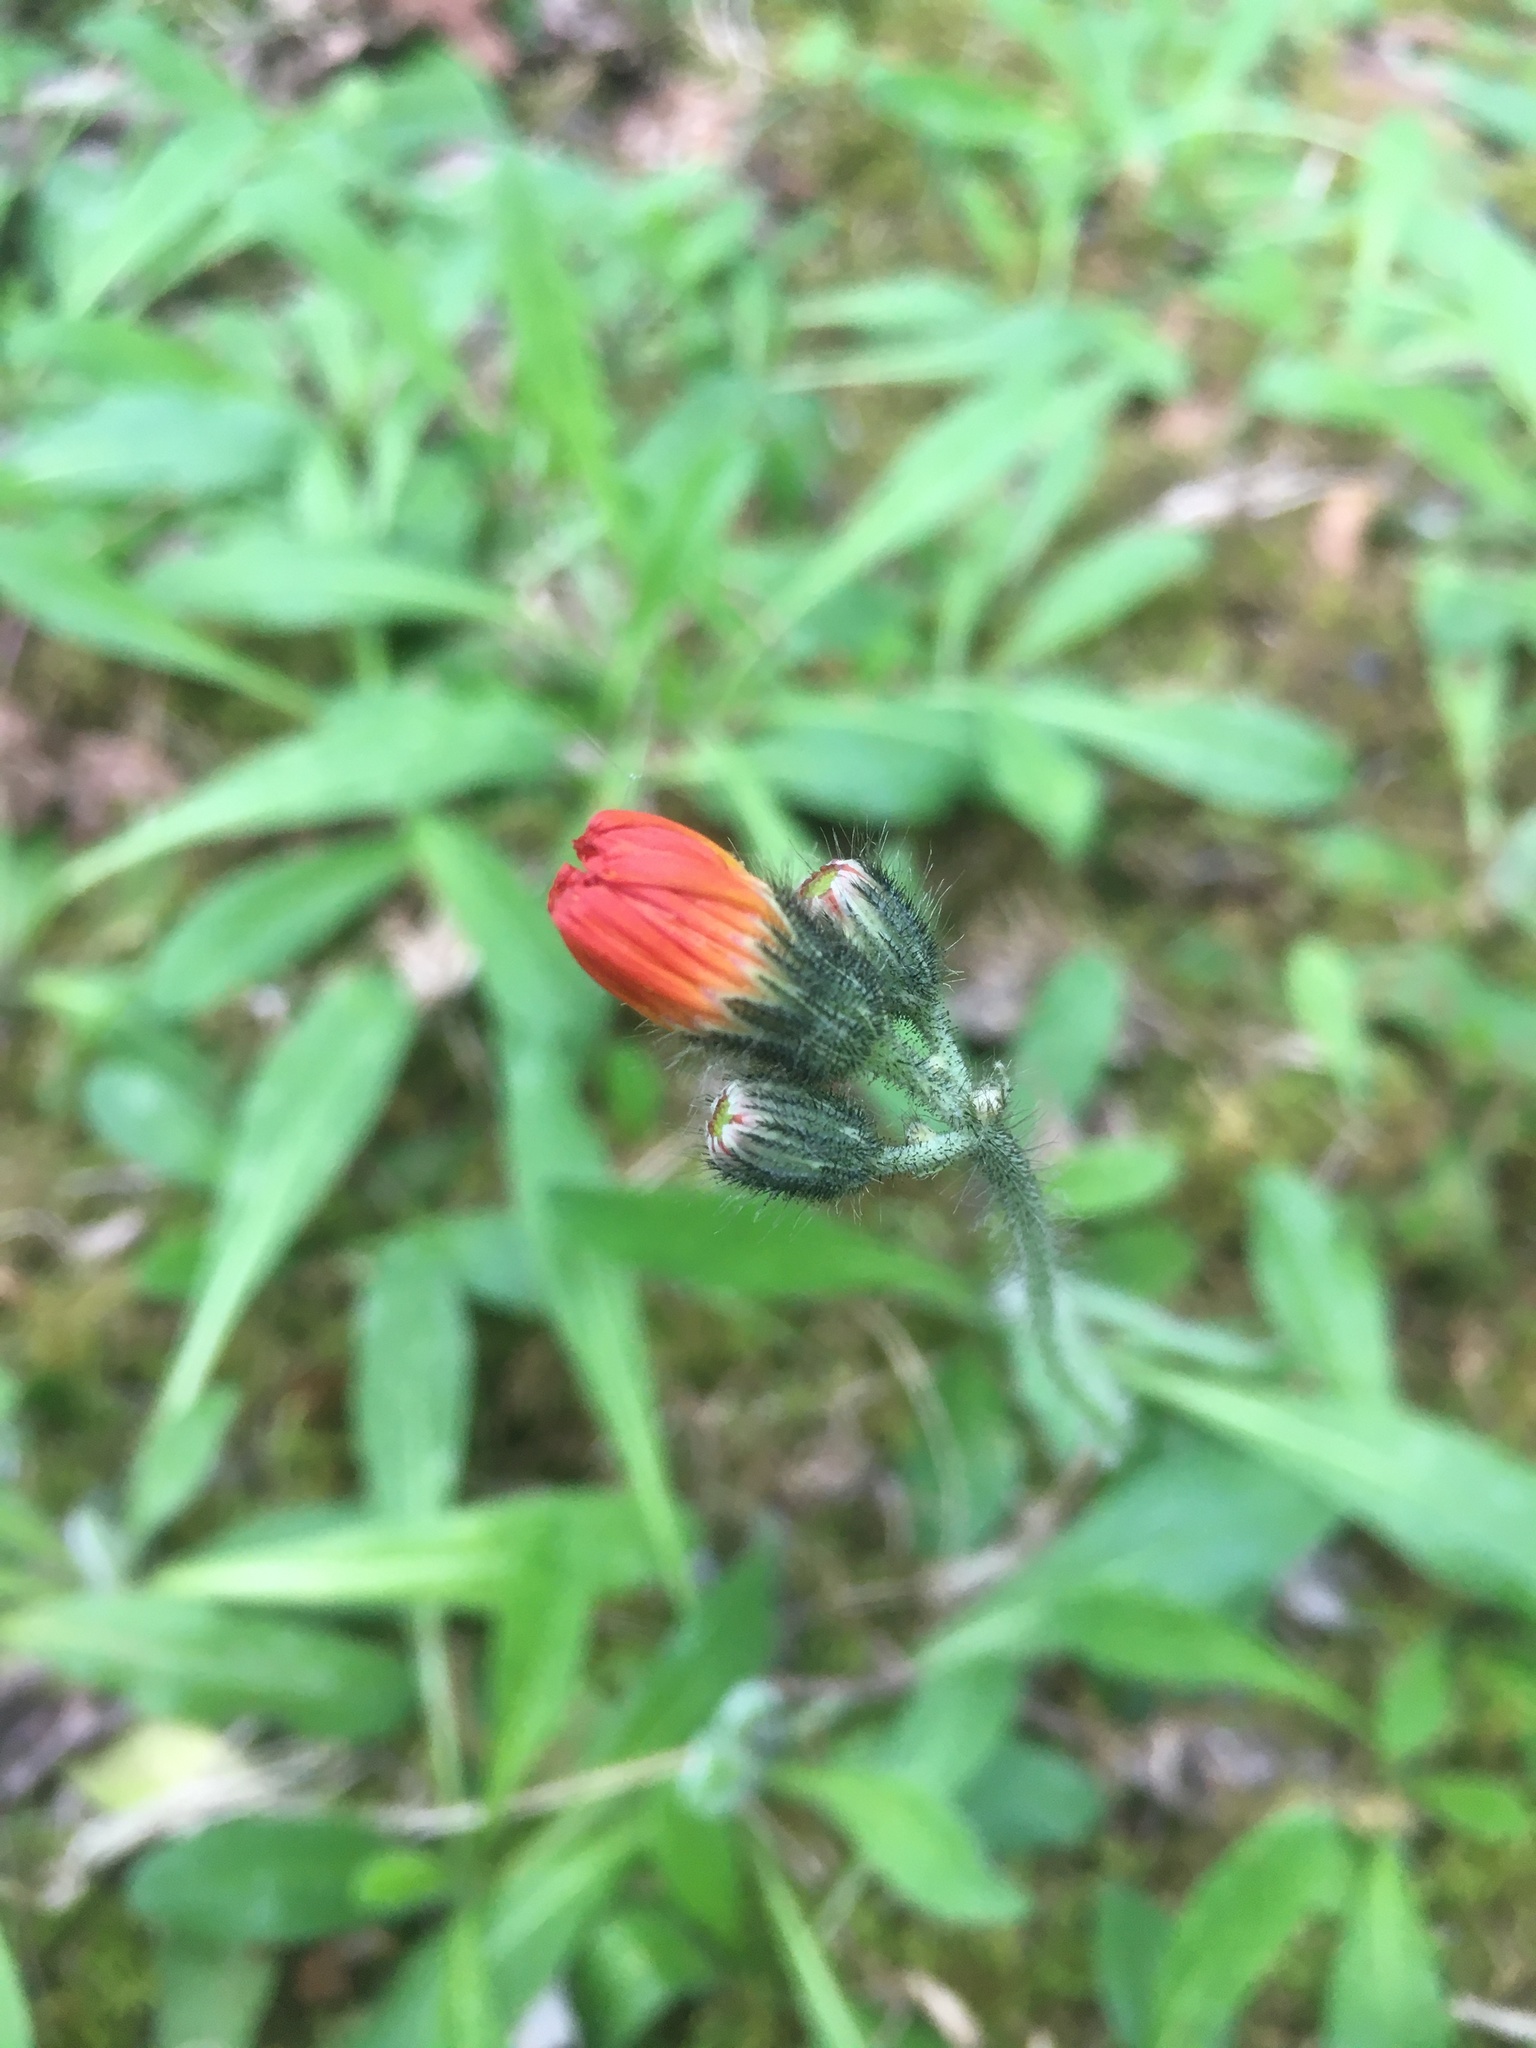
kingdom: Plantae
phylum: Tracheophyta
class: Magnoliopsida
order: Asterales
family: Asteraceae
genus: Pilosella
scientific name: Pilosella aurantiaca
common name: Fox-and-cubs
